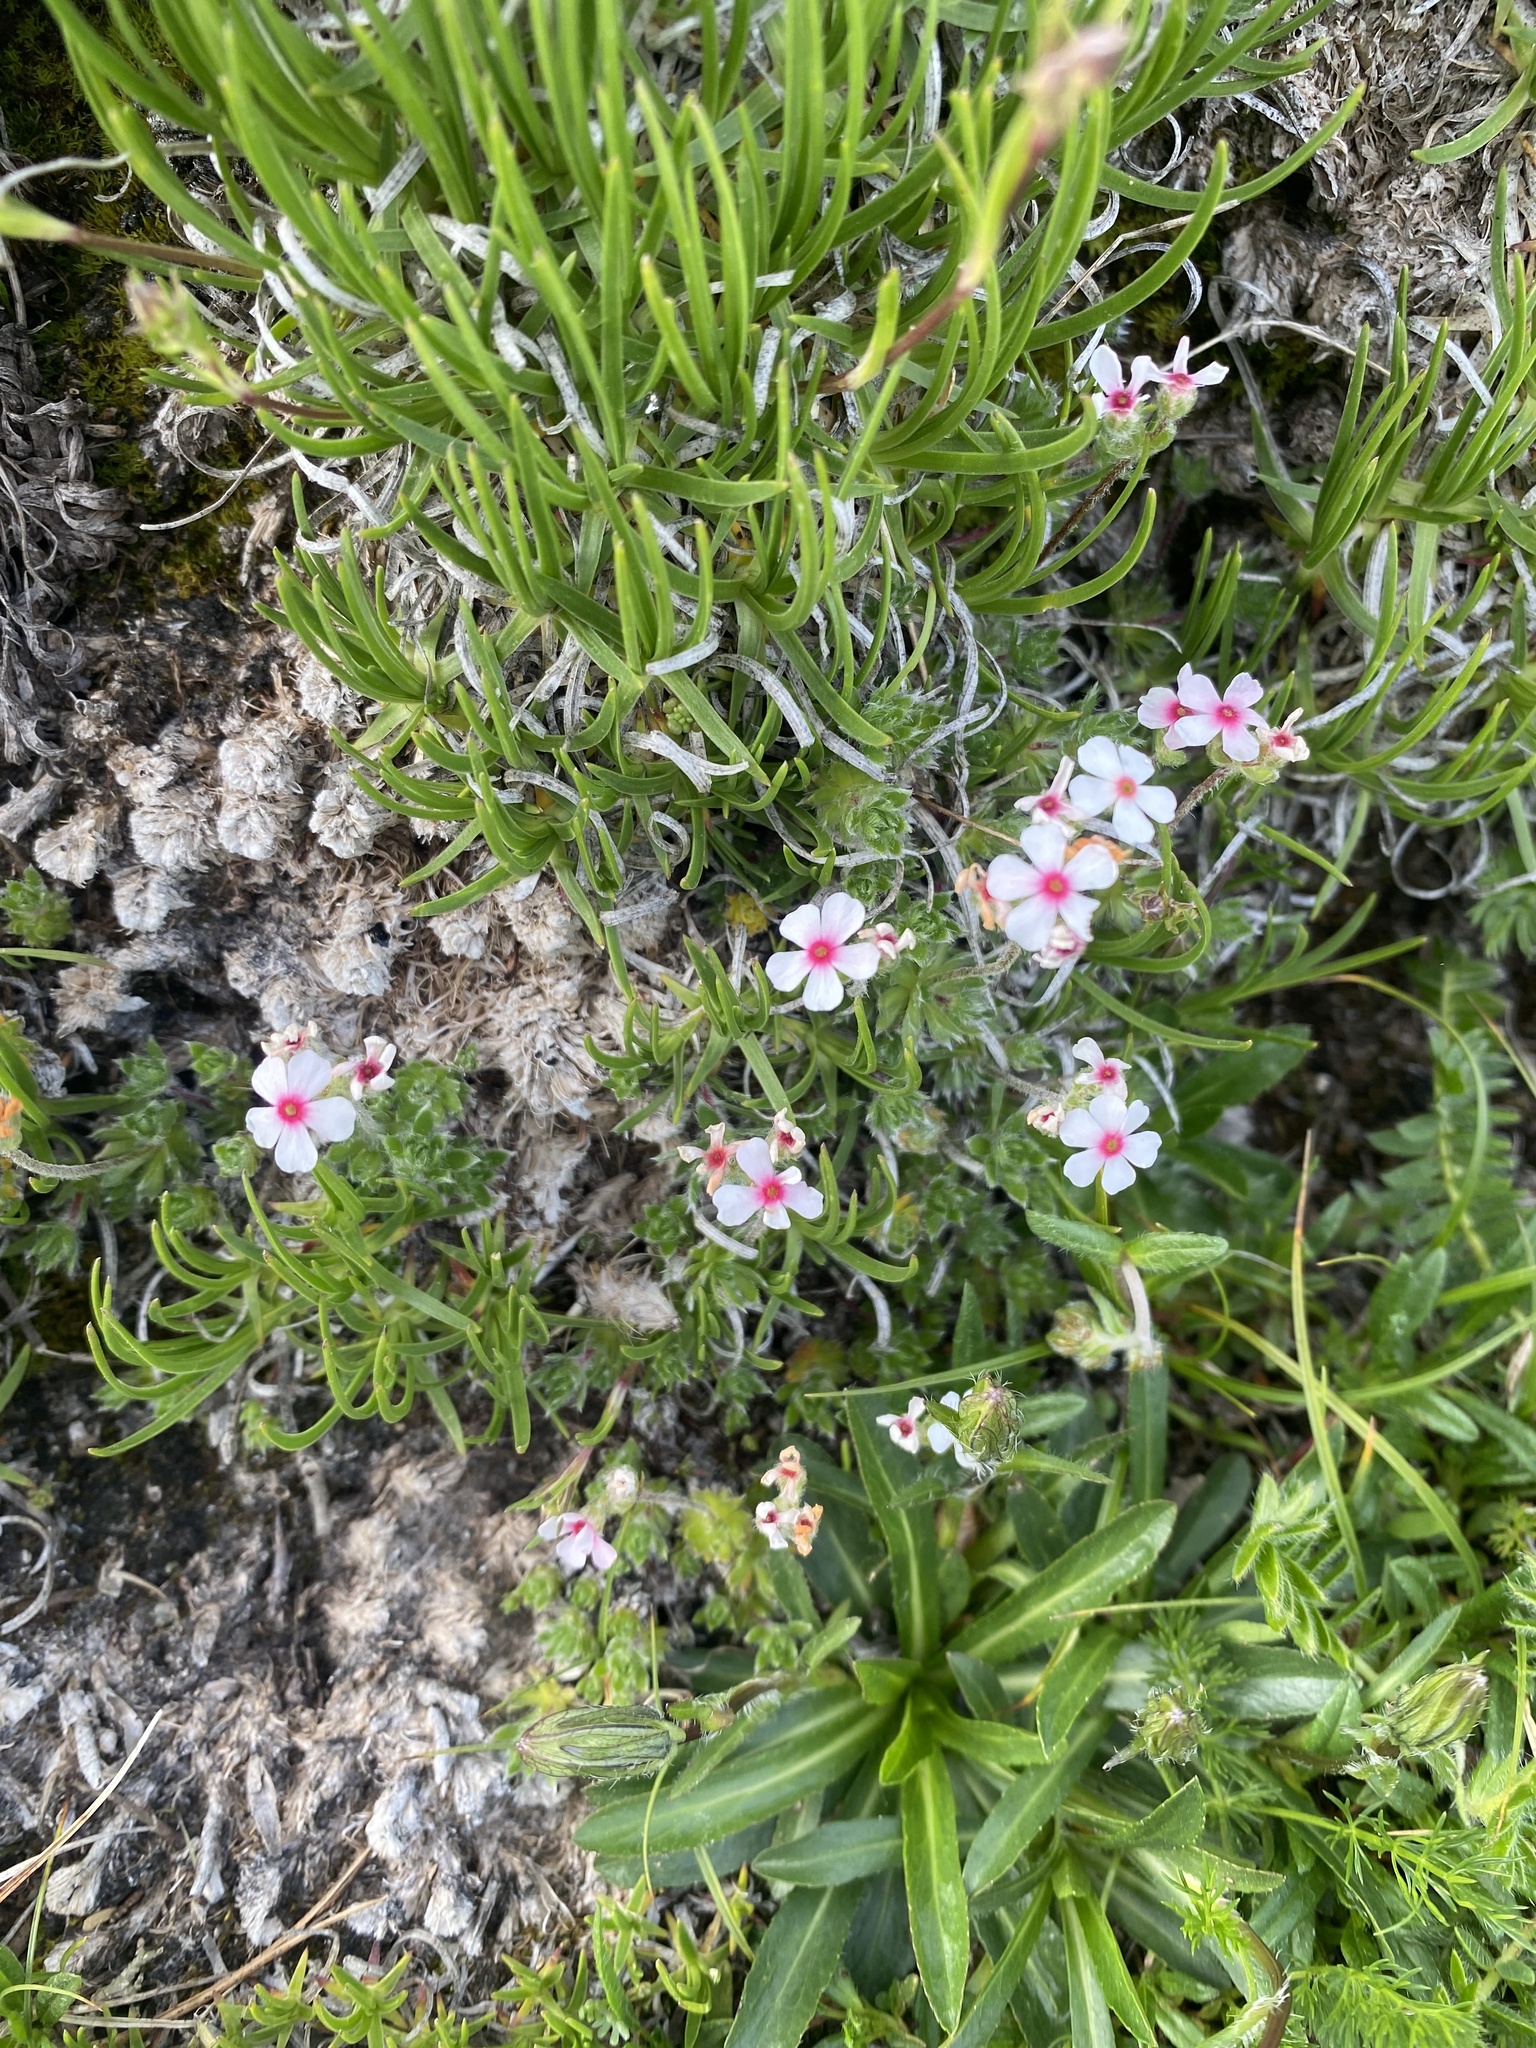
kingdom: Plantae
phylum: Tracheophyta
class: Magnoliopsida
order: Ericales
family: Primulaceae
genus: Androsace
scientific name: Androsace villosa
